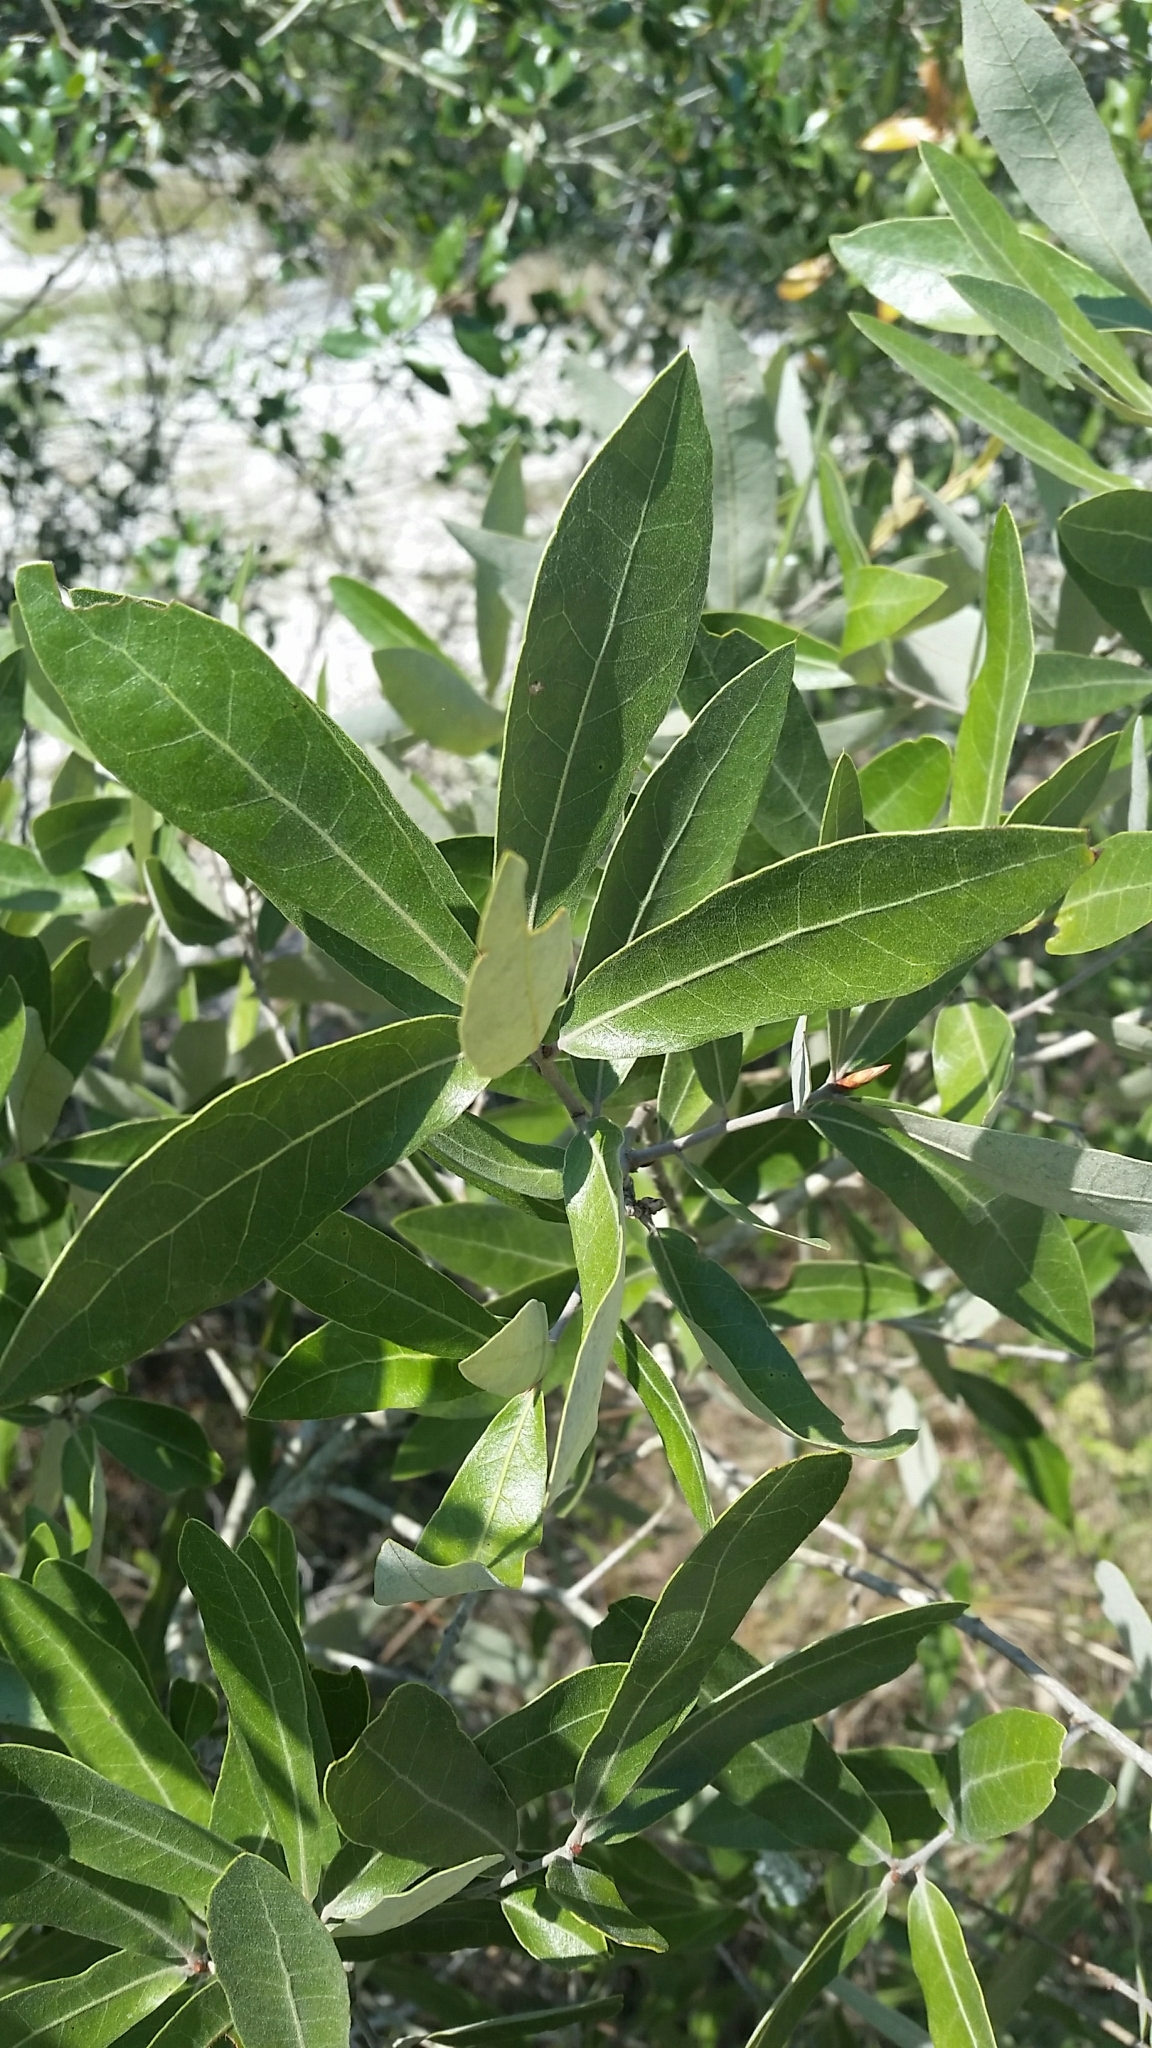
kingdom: Plantae
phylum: Tracheophyta
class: Magnoliopsida
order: Fagales
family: Fagaceae
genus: Quercus
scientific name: Quercus incana
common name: Bluejack oak
